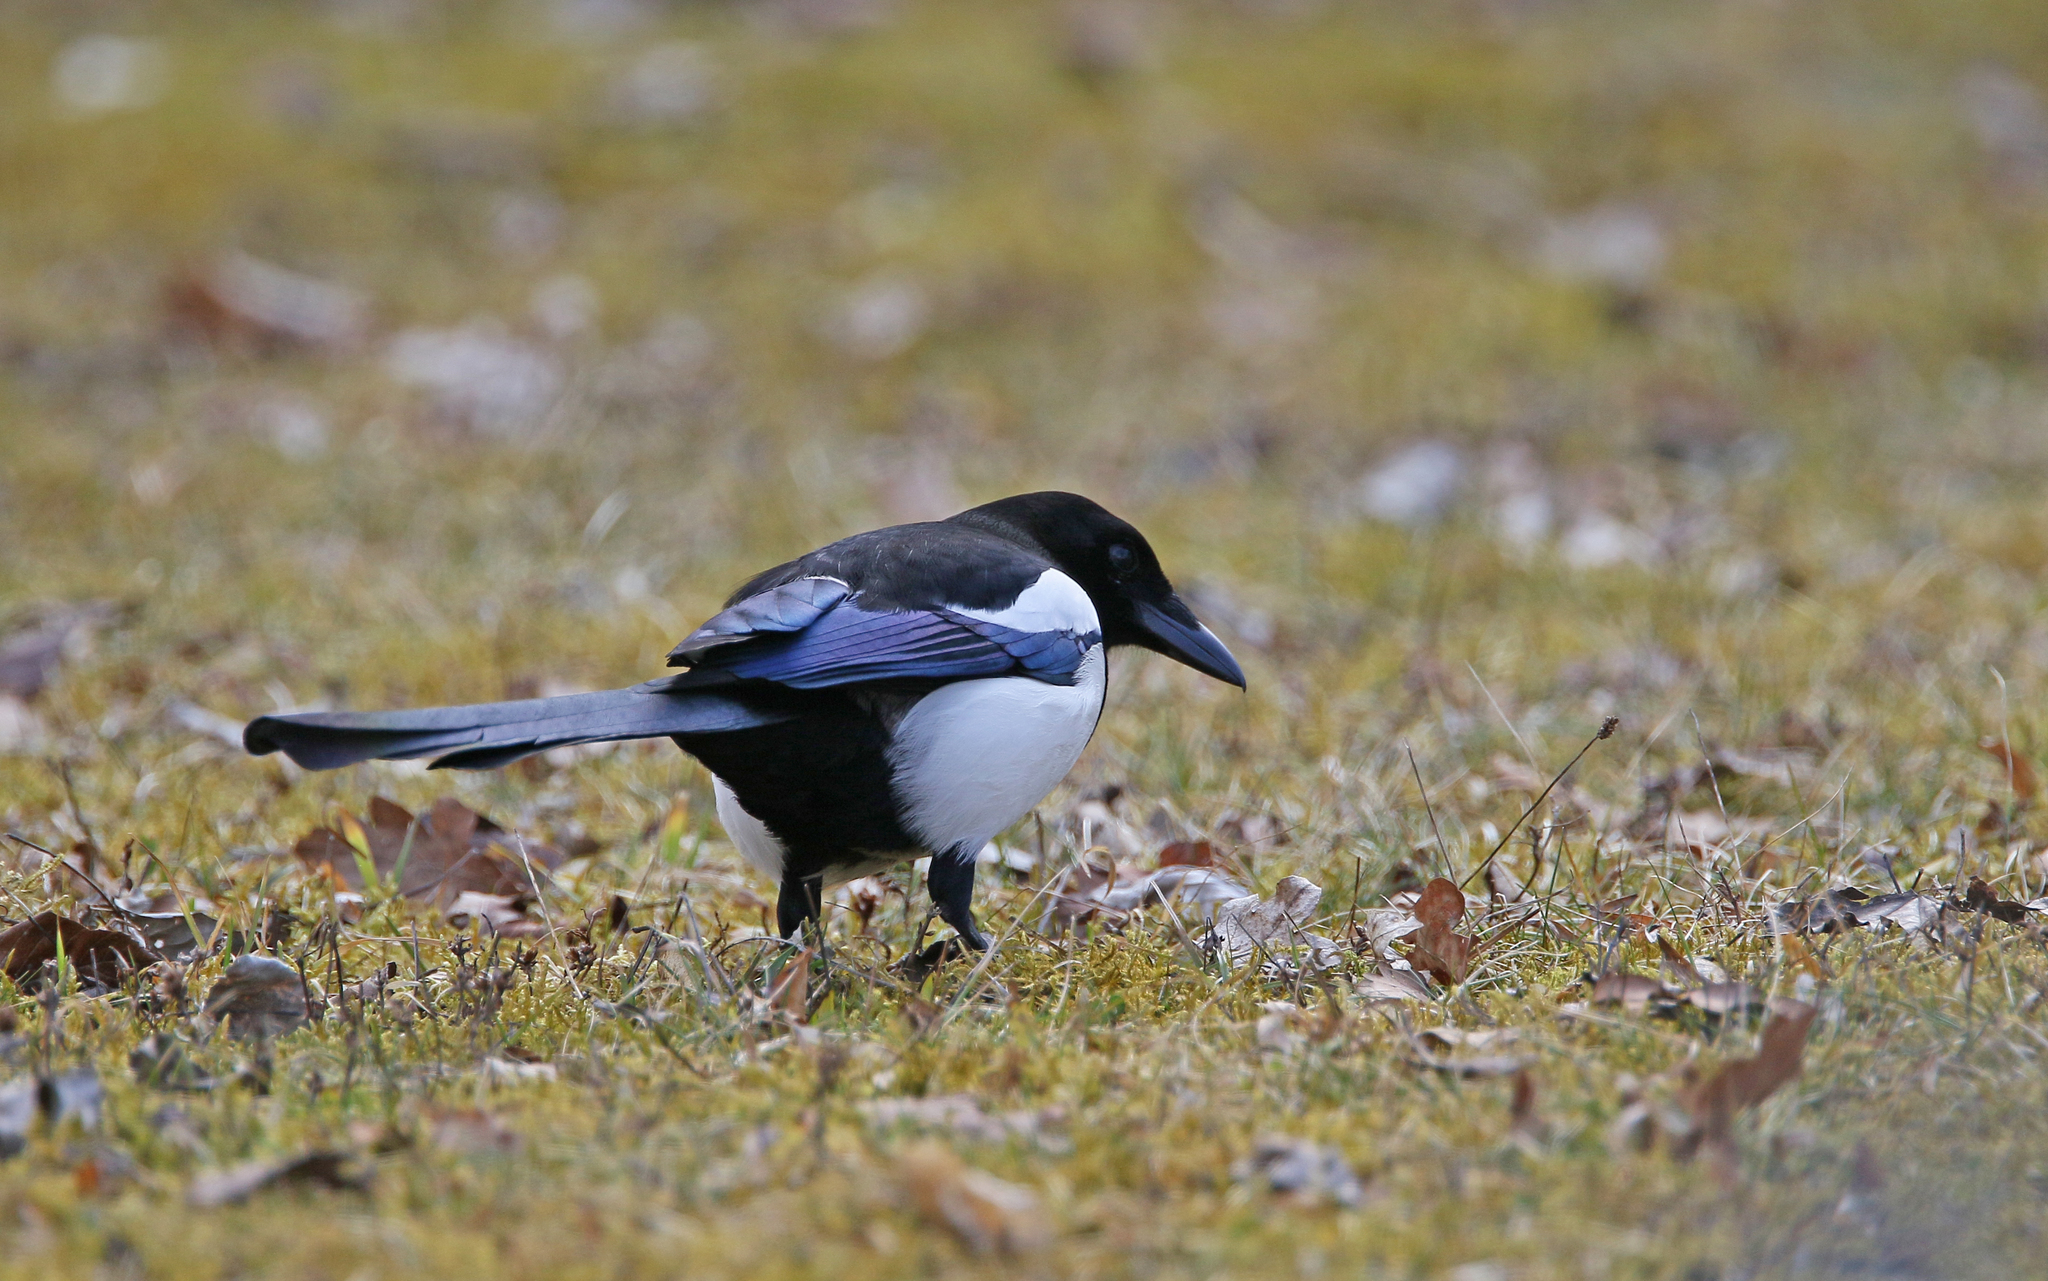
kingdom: Animalia
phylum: Chordata
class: Aves
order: Passeriformes
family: Corvidae
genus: Pica
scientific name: Pica pica
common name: Eurasian magpie
